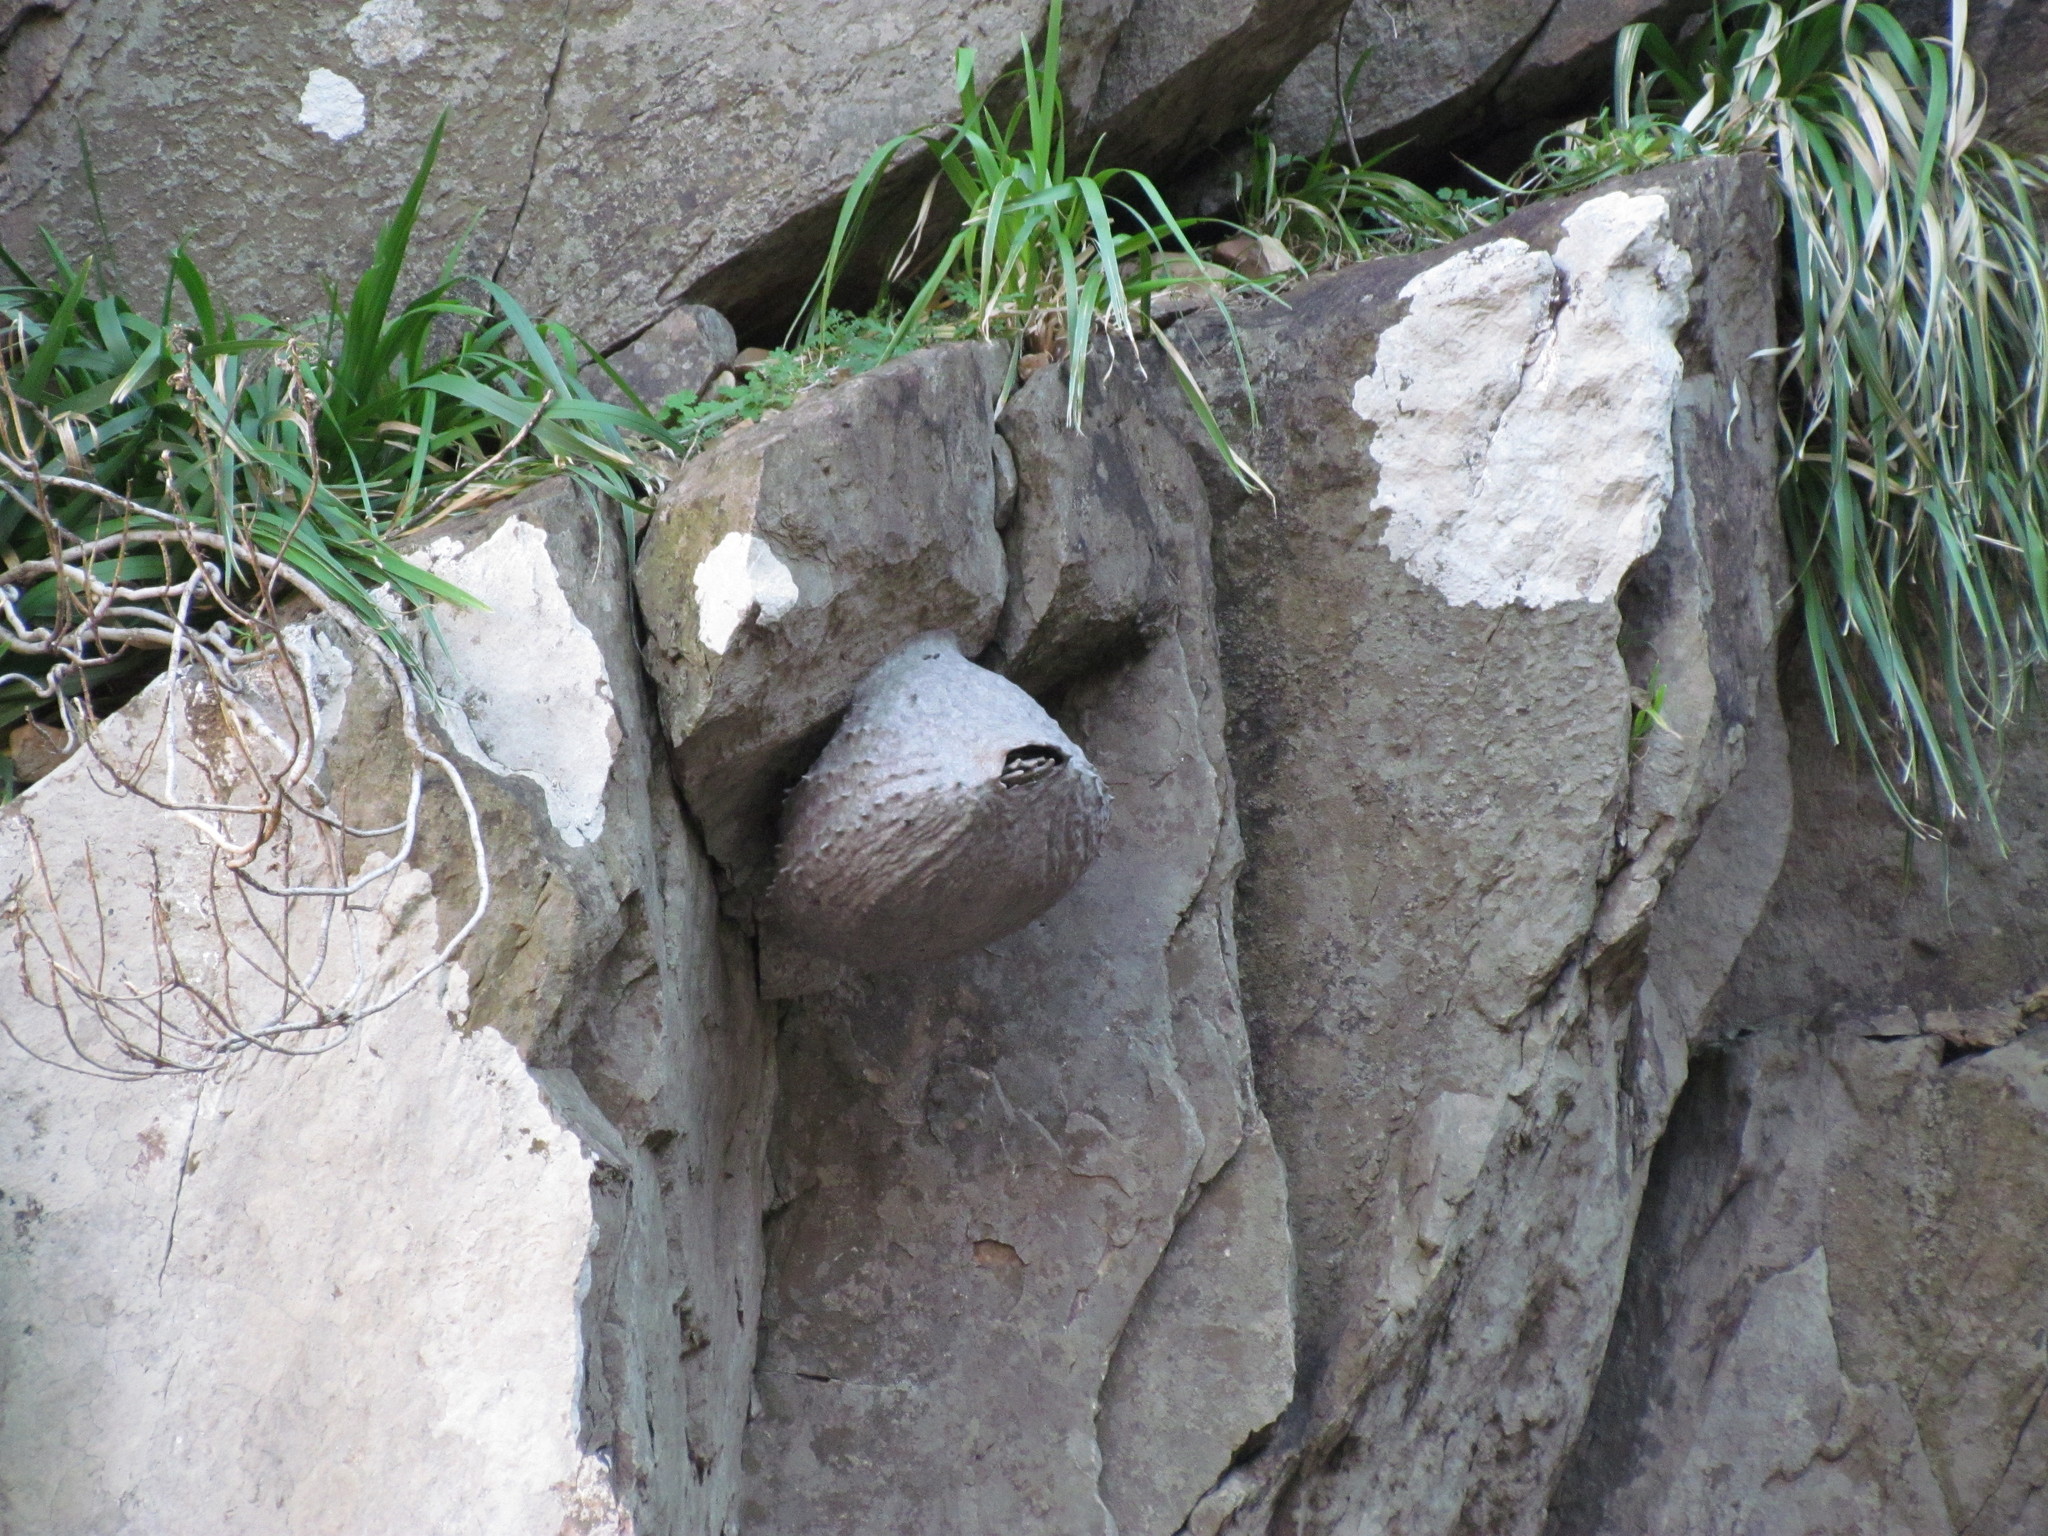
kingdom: Animalia
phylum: Arthropoda
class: Insecta
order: Hymenoptera
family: Eumenidae
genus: Polybia
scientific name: Polybia scutellaris
